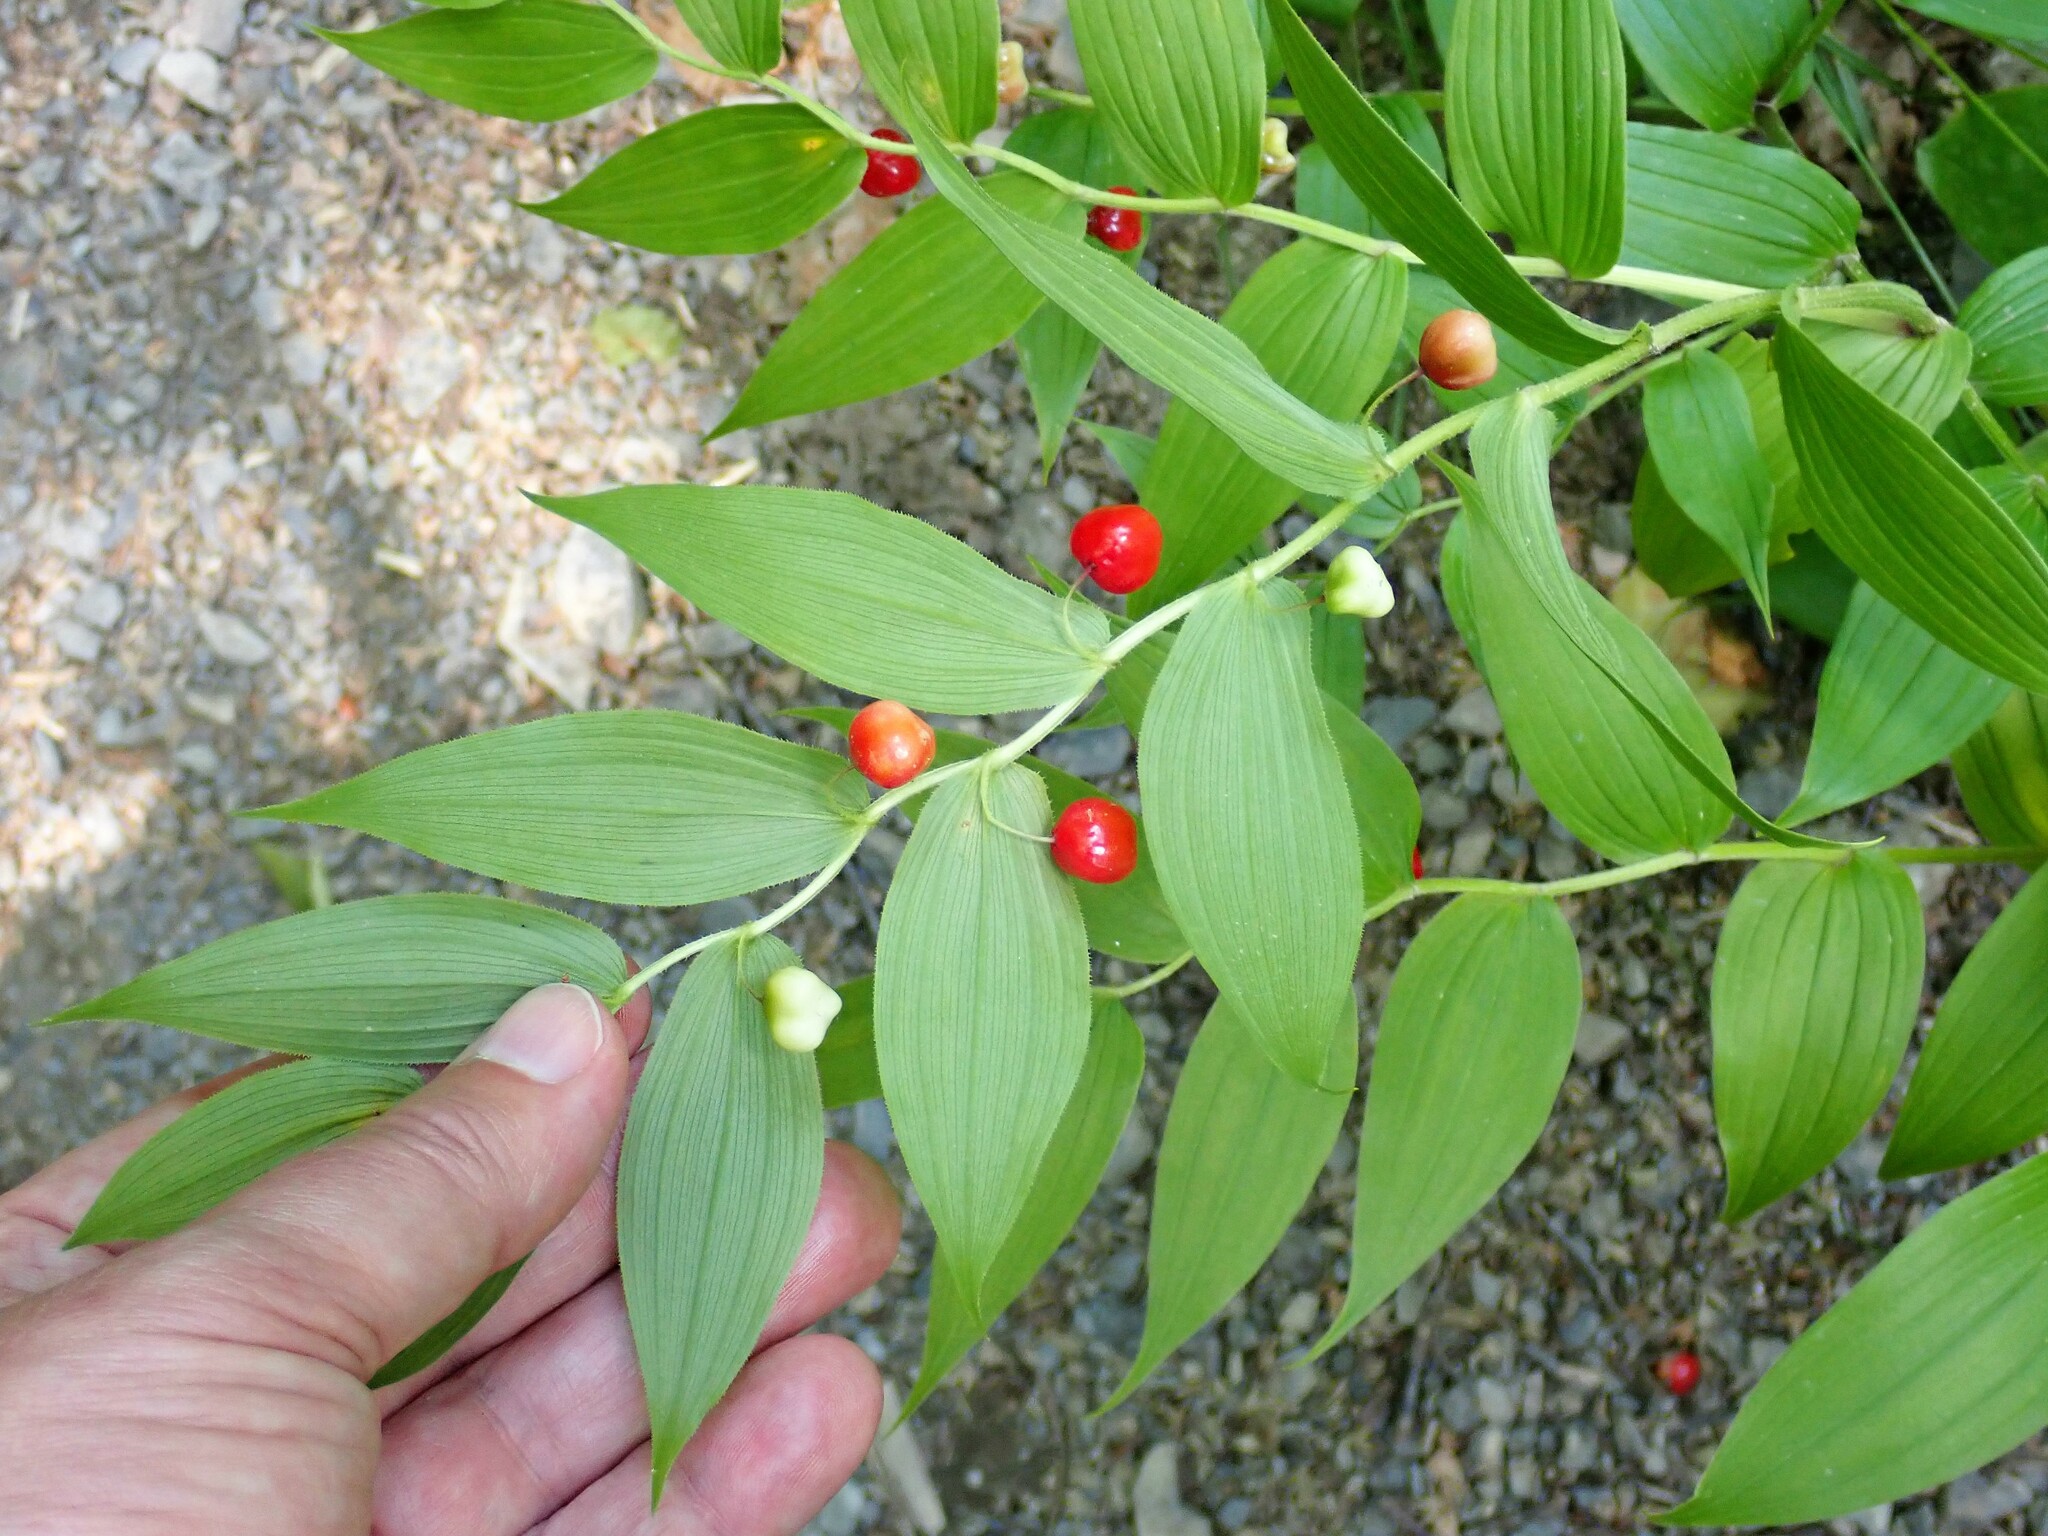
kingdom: Plantae
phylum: Tracheophyta
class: Liliopsida
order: Liliales
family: Liliaceae
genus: Streptopus
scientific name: Streptopus lanceolatus
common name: Rose mandarin
